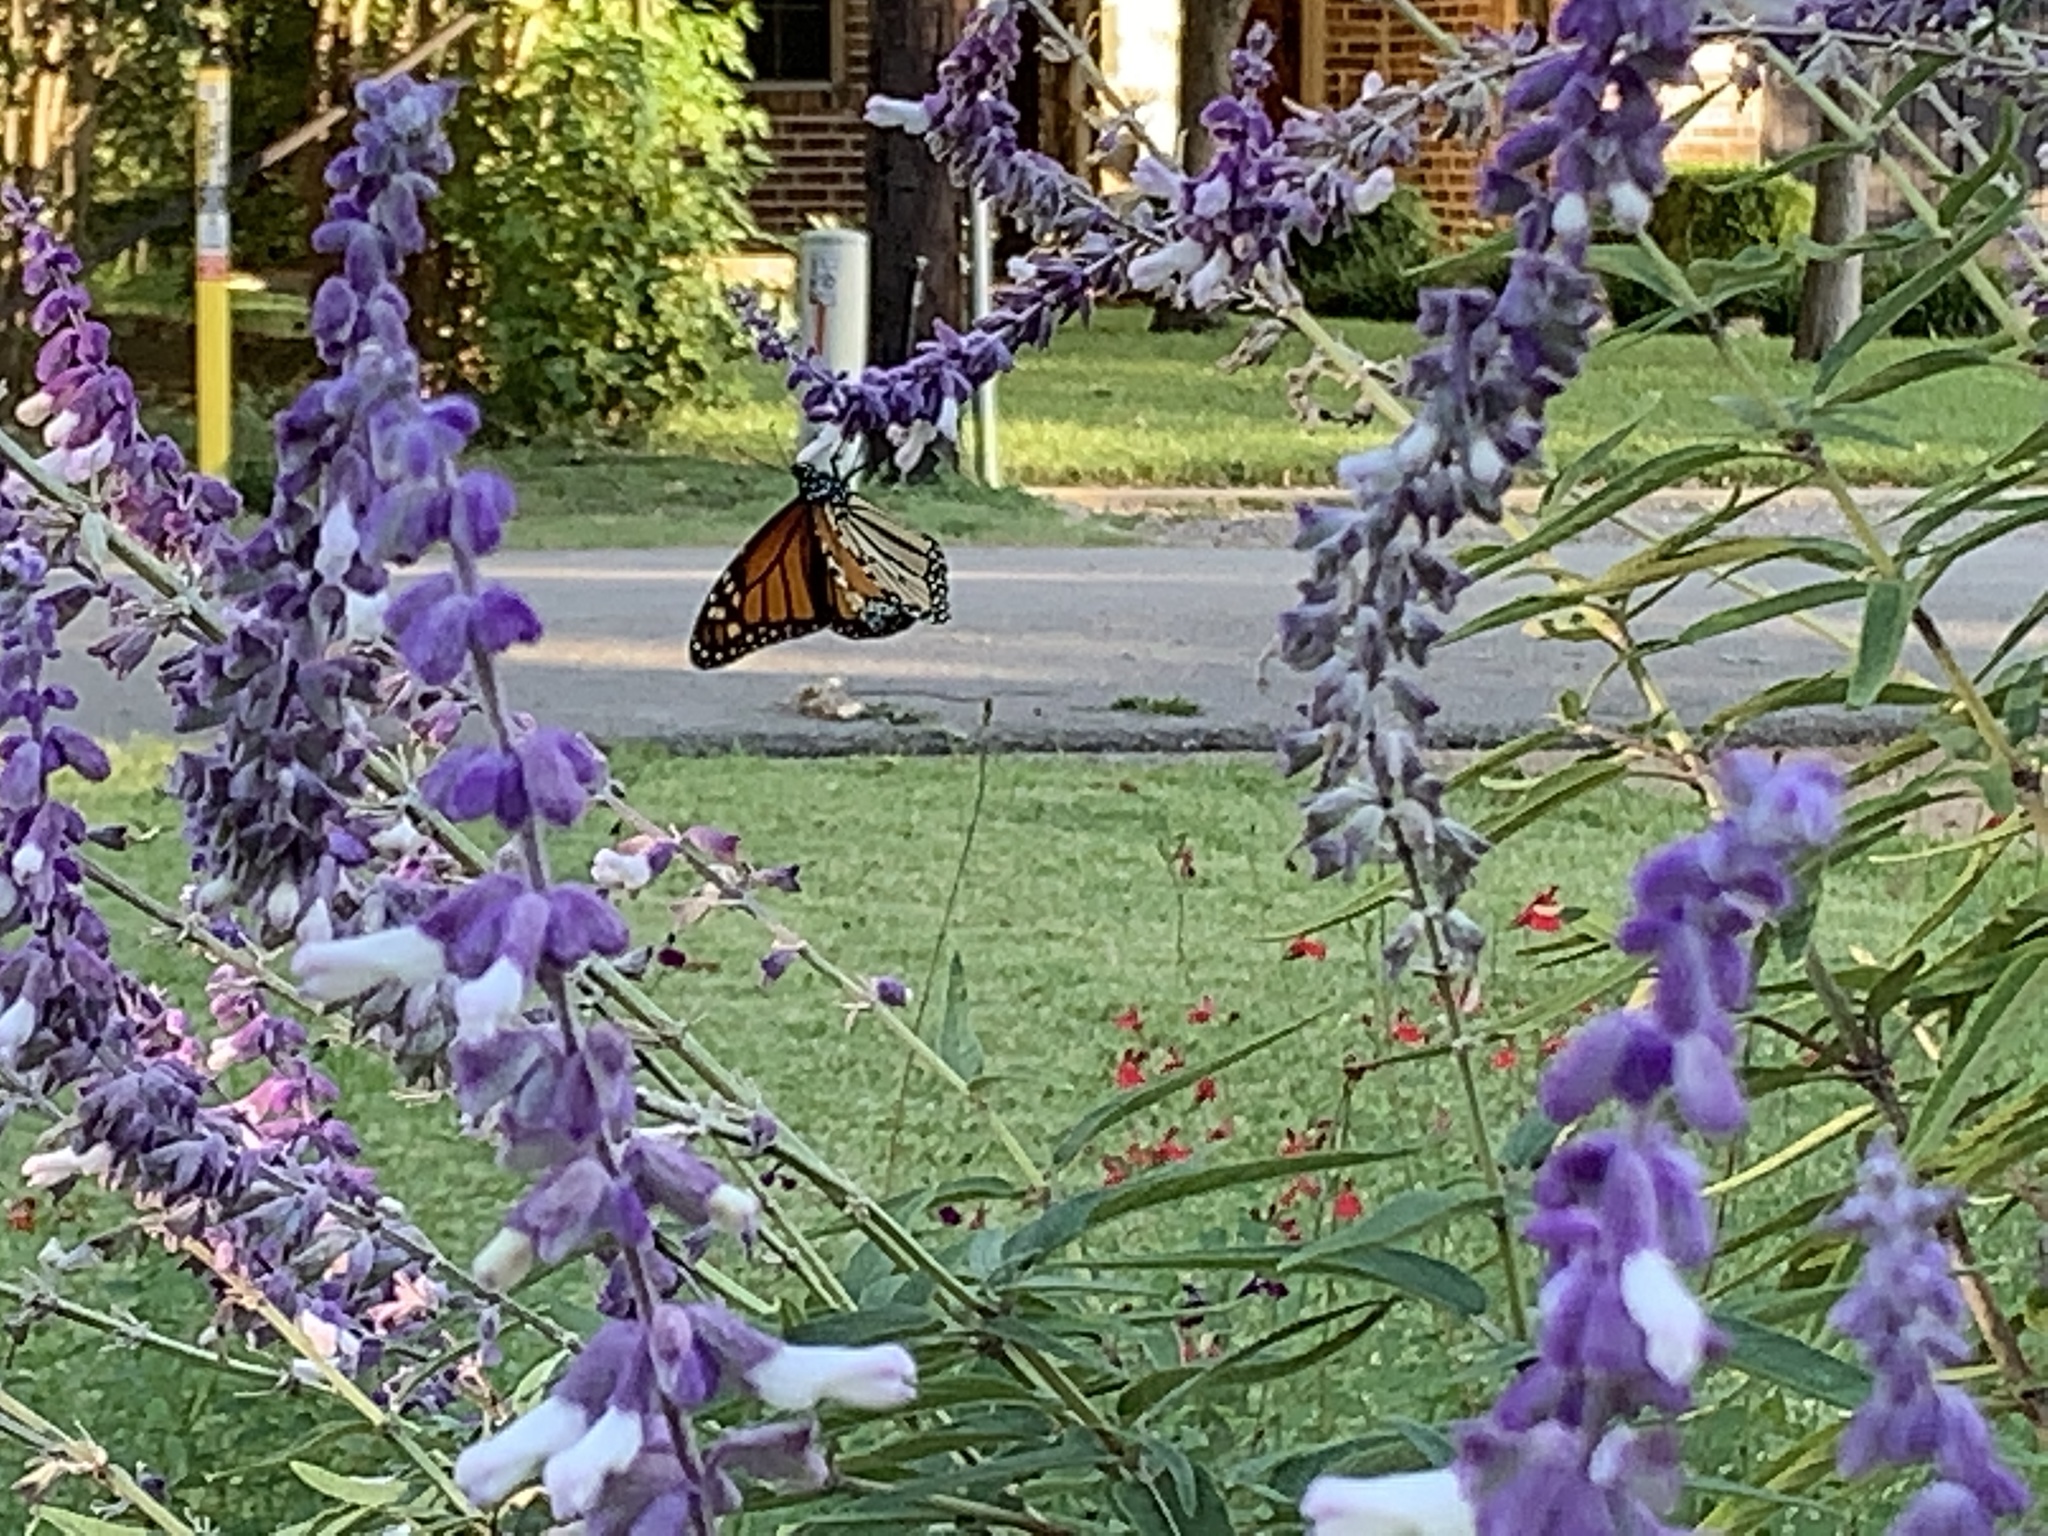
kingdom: Animalia
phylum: Arthropoda
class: Insecta
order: Lepidoptera
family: Nymphalidae
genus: Danaus
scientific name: Danaus plexippus
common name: Monarch
